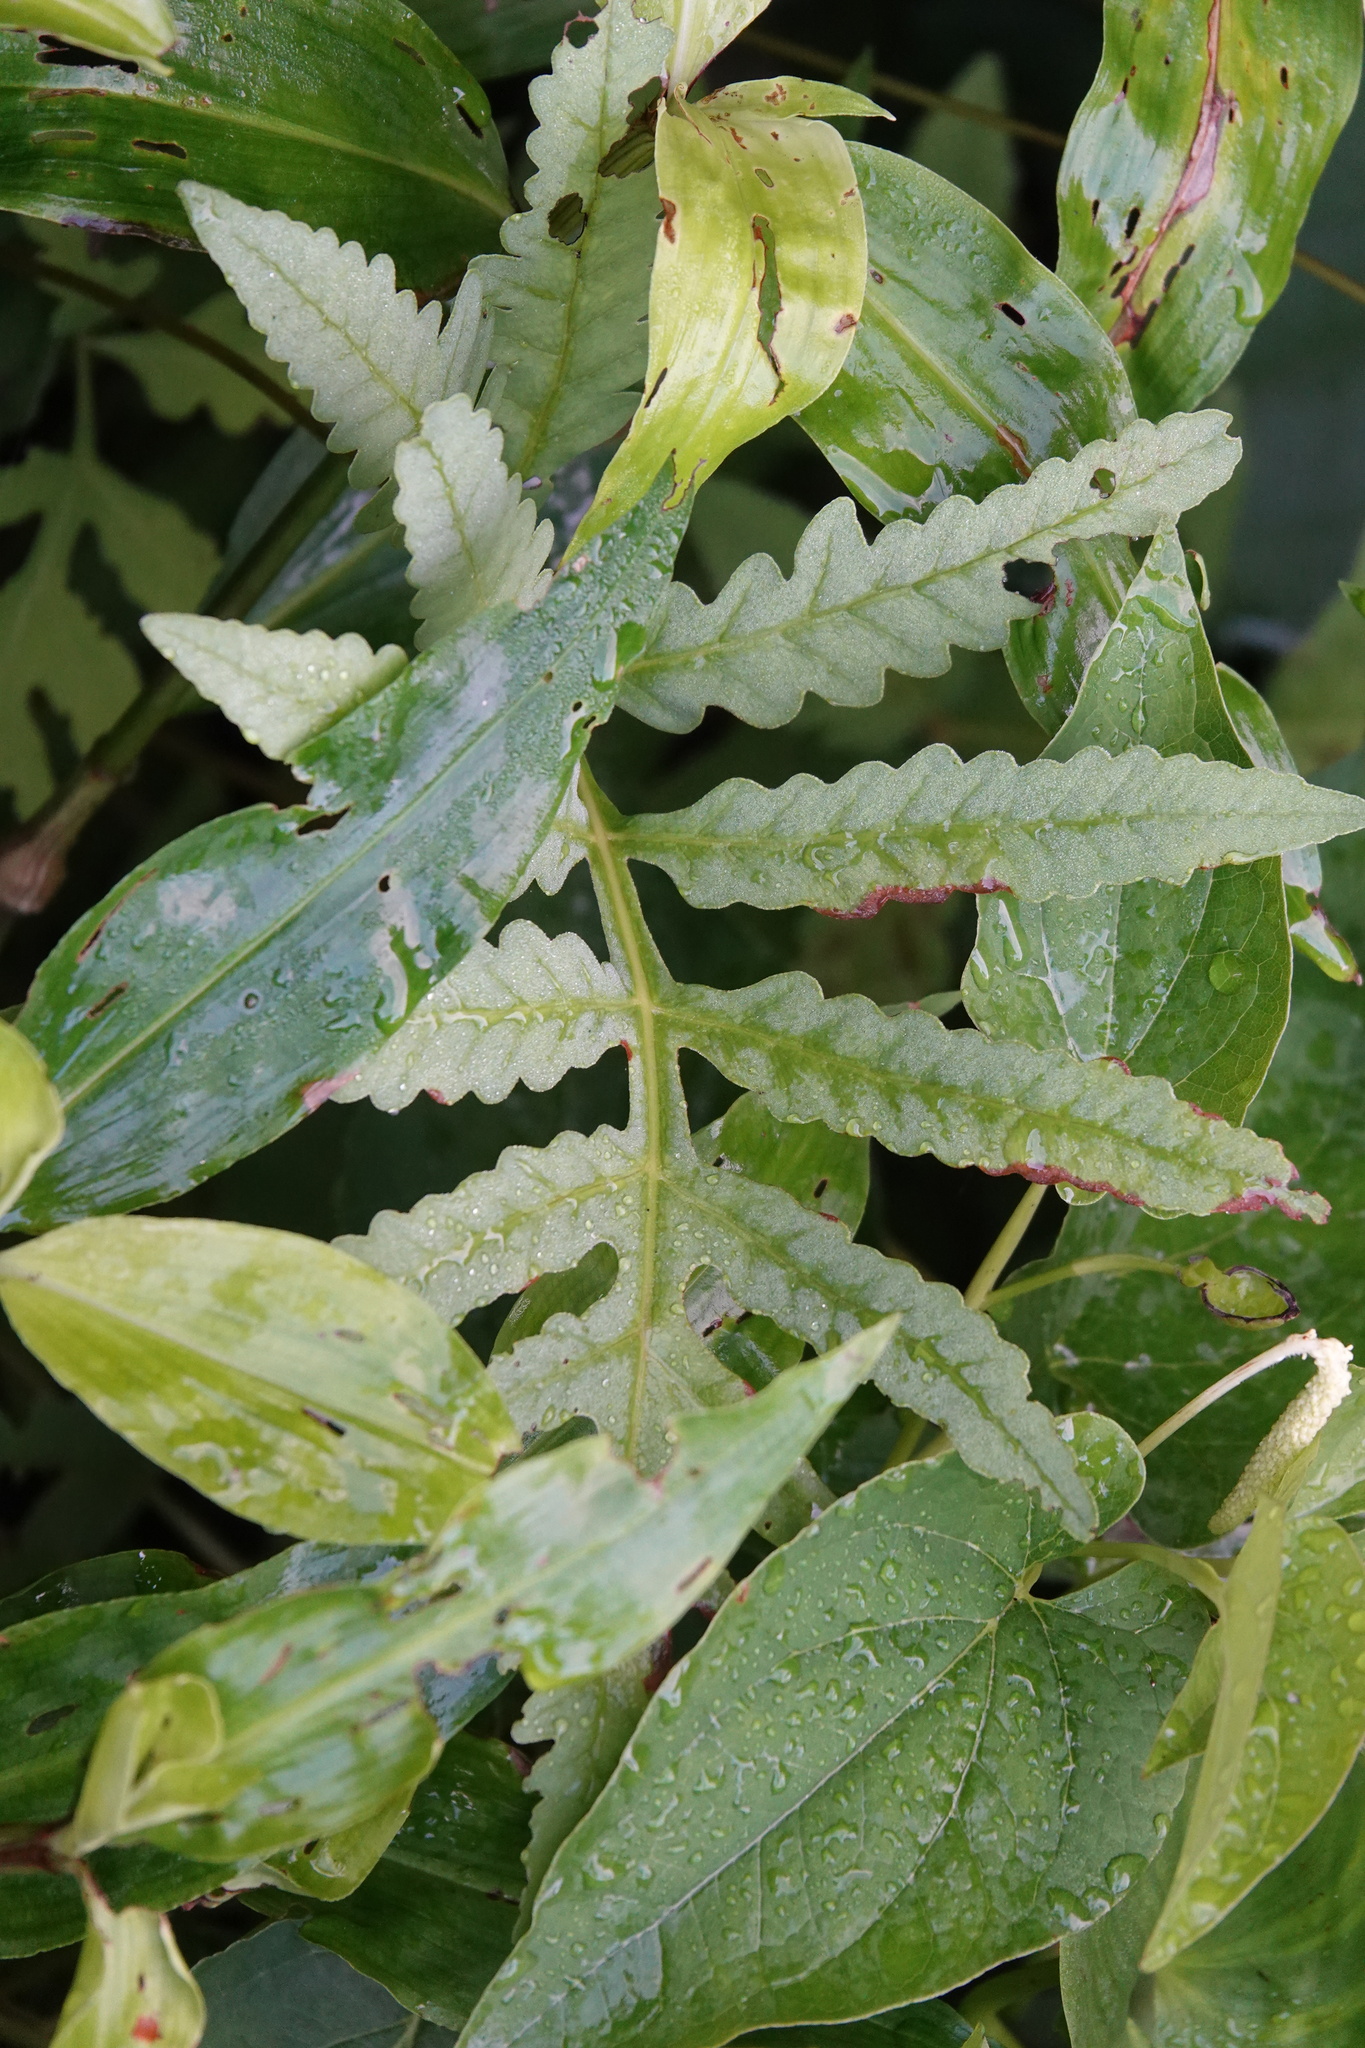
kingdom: Plantae
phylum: Tracheophyta
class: Polypodiopsida
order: Polypodiales
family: Onocleaceae
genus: Onoclea
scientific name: Onoclea sensibilis
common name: Sensitive fern
